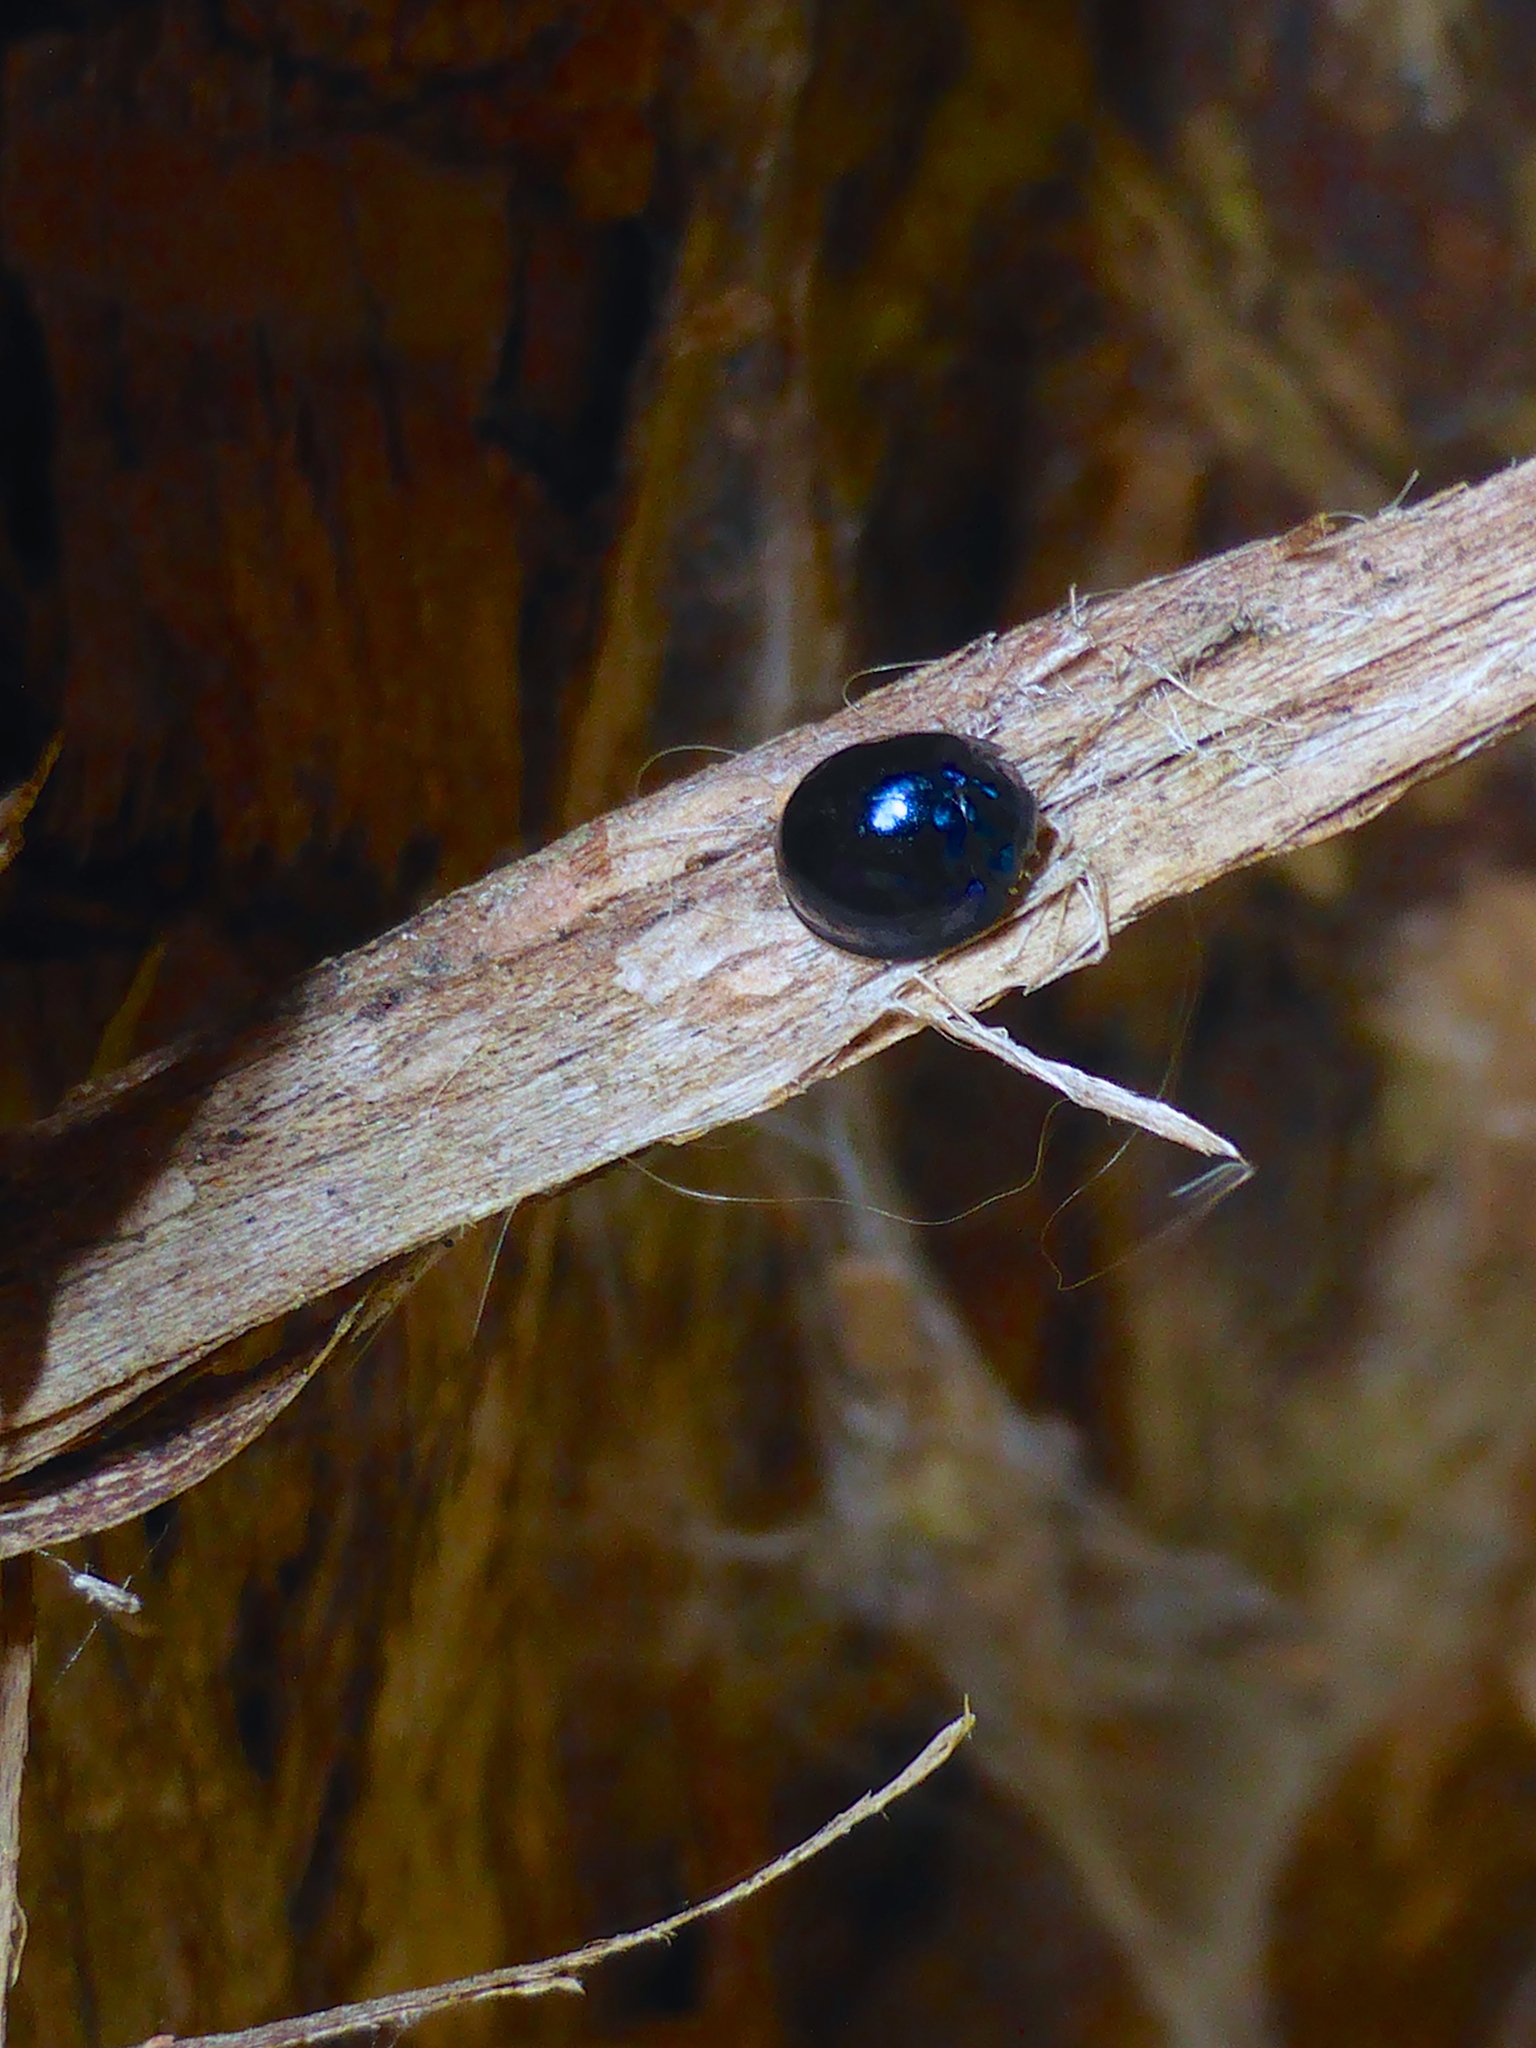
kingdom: Animalia
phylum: Arthropoda
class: Insecta
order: Coleoptera
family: Coccinellidae
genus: Halmus
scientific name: Halmus chalybeus
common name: Steel blue ladybird beetle
